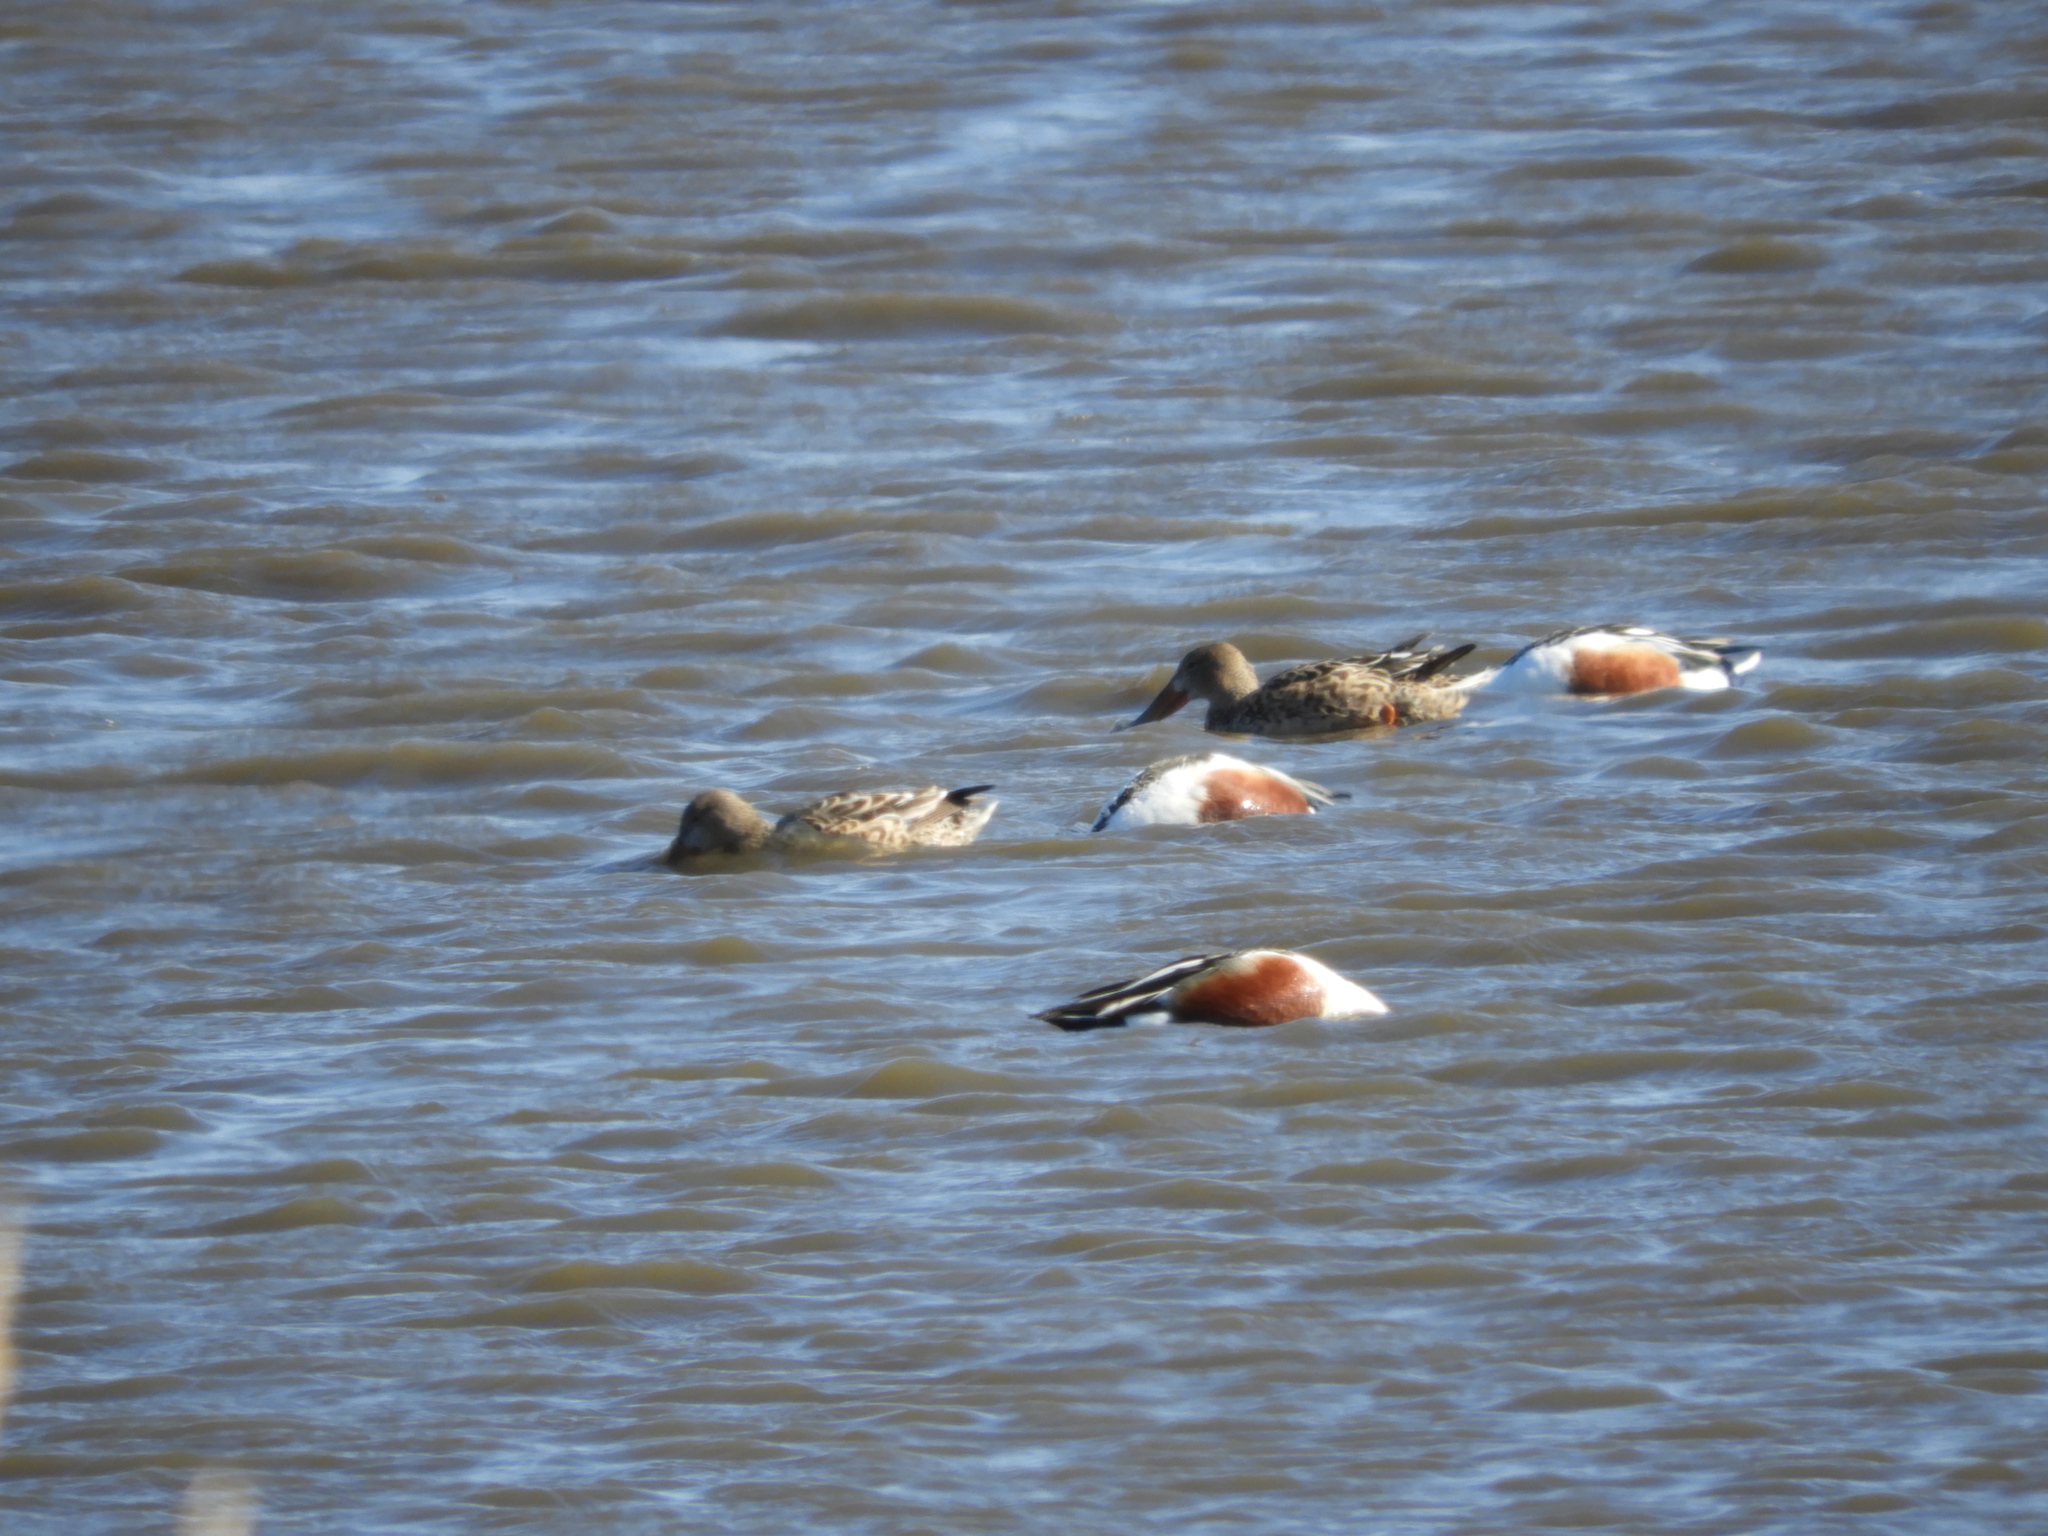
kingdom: Animalia
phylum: Chordata
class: Aves
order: Anseriformes
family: Anatidae
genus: Spatula
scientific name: Spatula clypeata
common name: Northern shoveler
